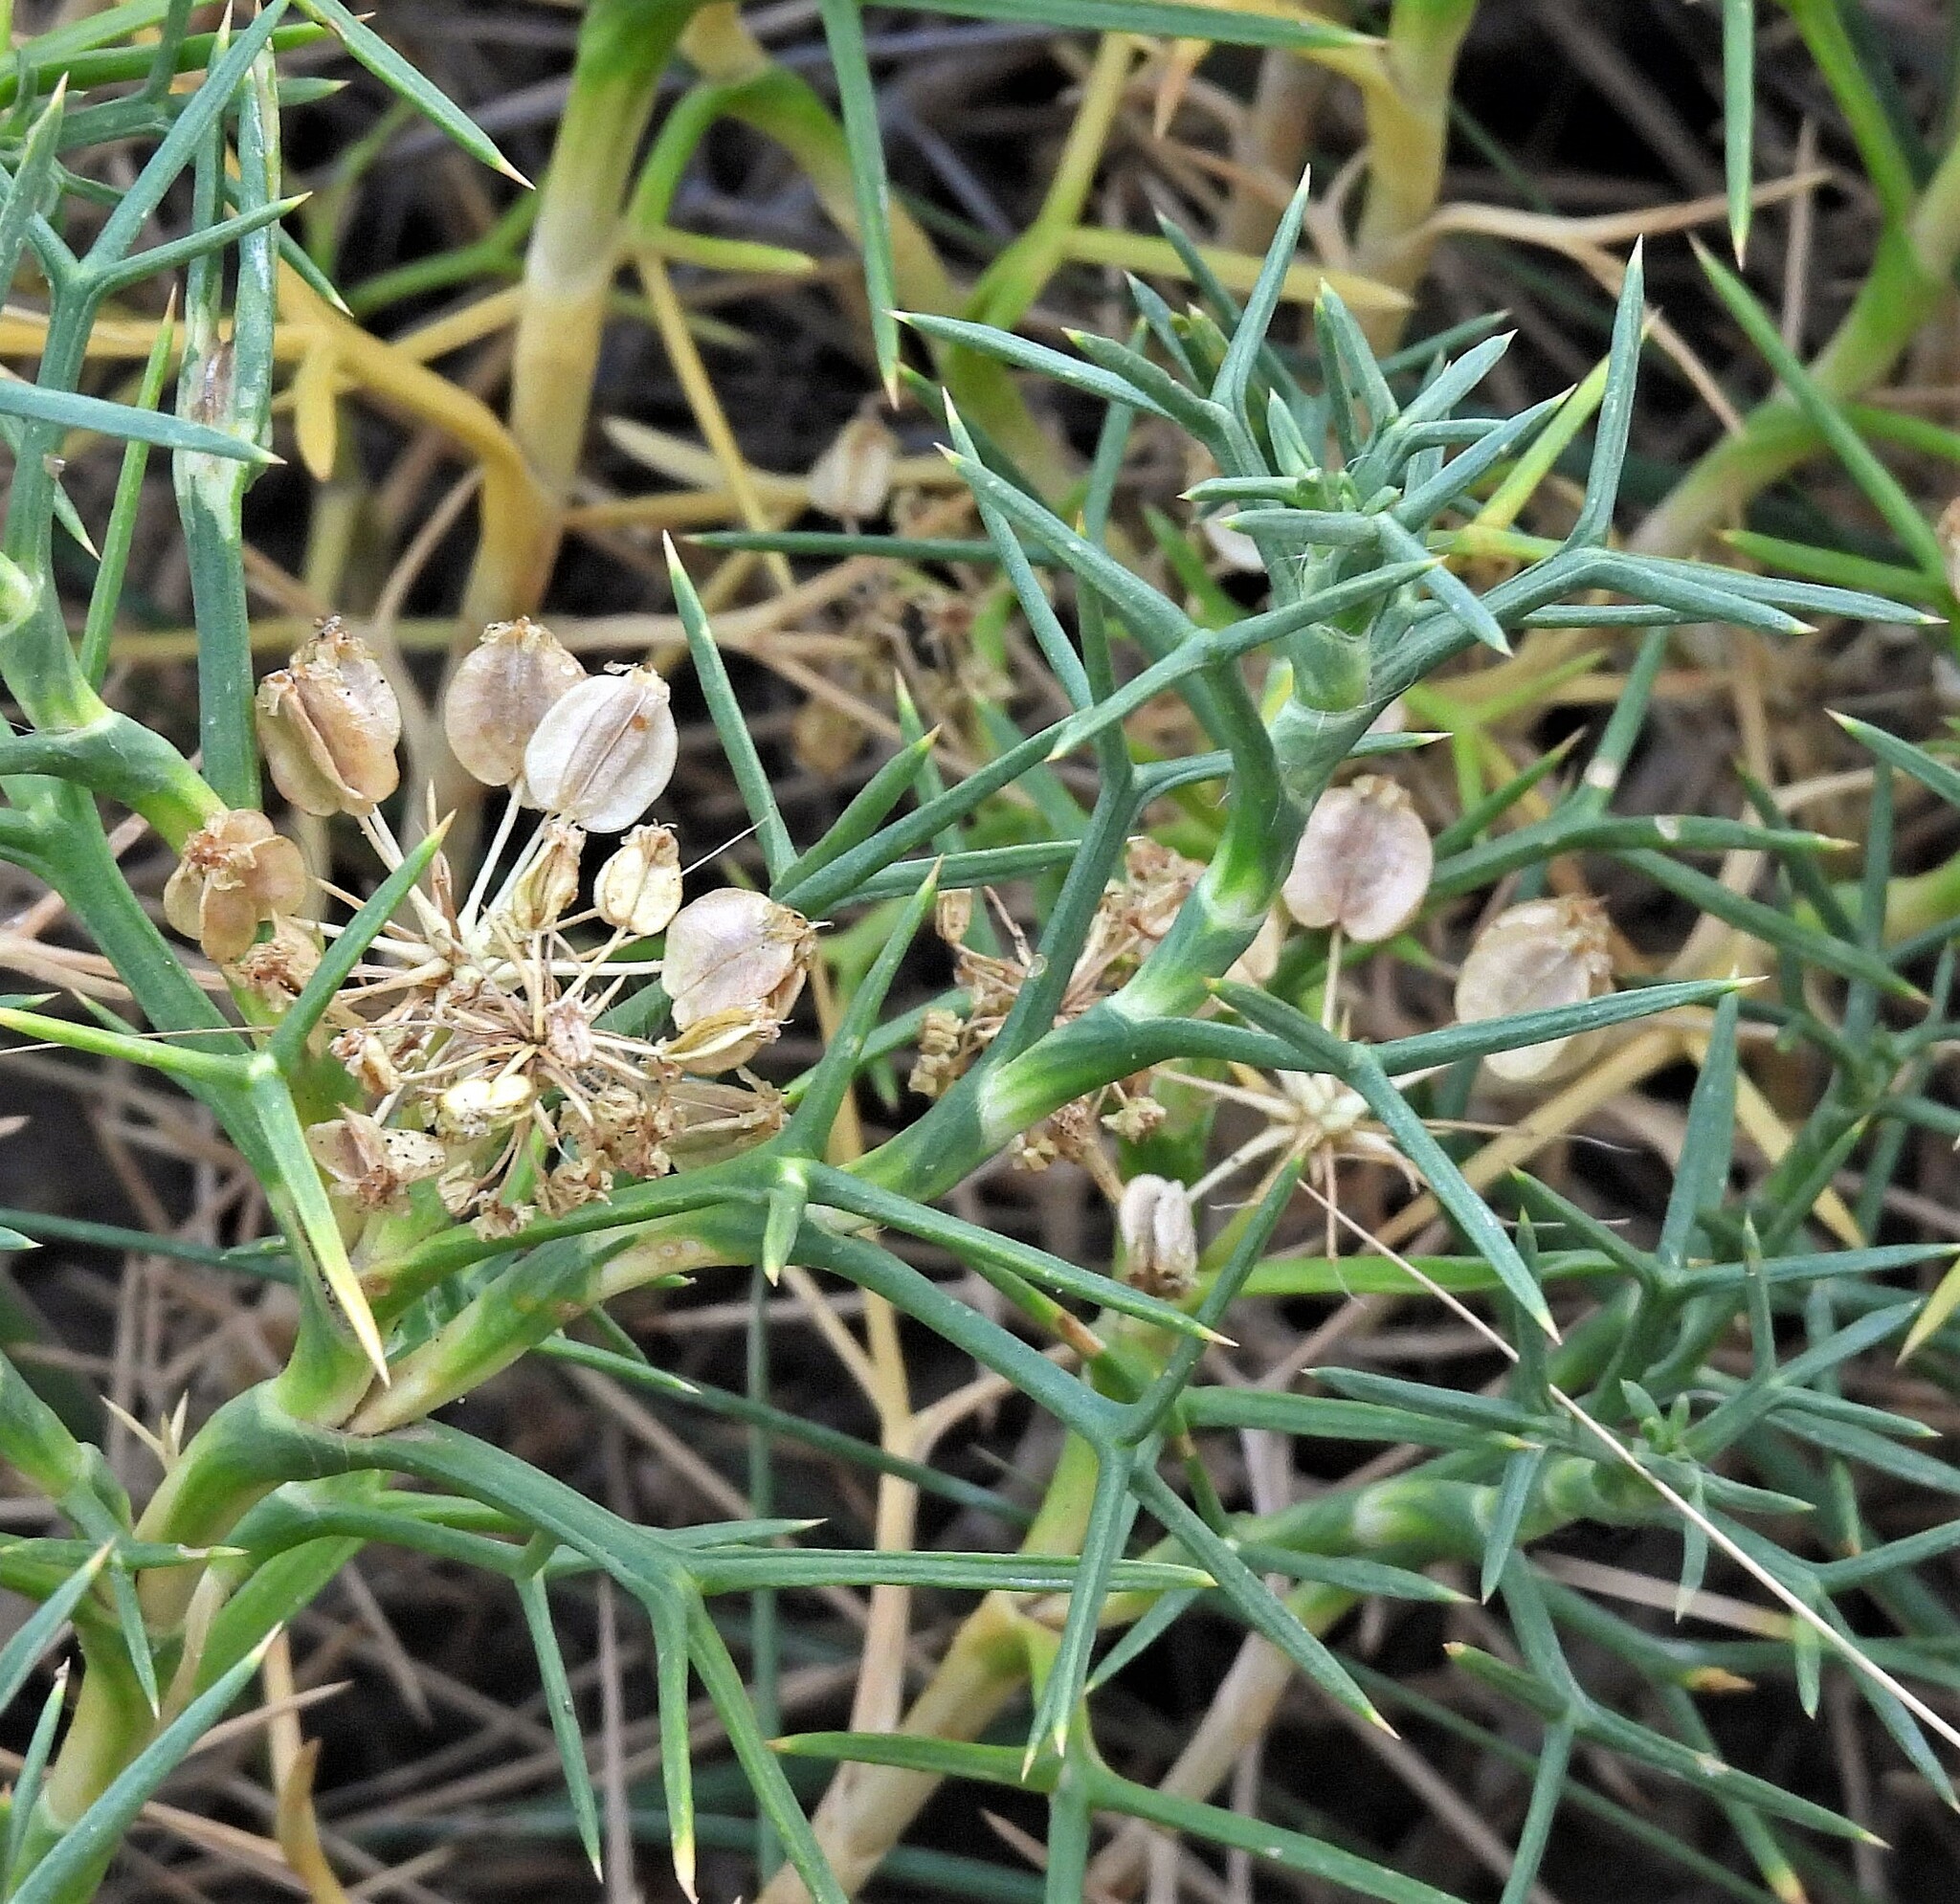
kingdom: Plantae
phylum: Tracheophyta
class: Magnoliopsida
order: Apiales
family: Apiaceae
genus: Azorella
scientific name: Azorella prolifera
